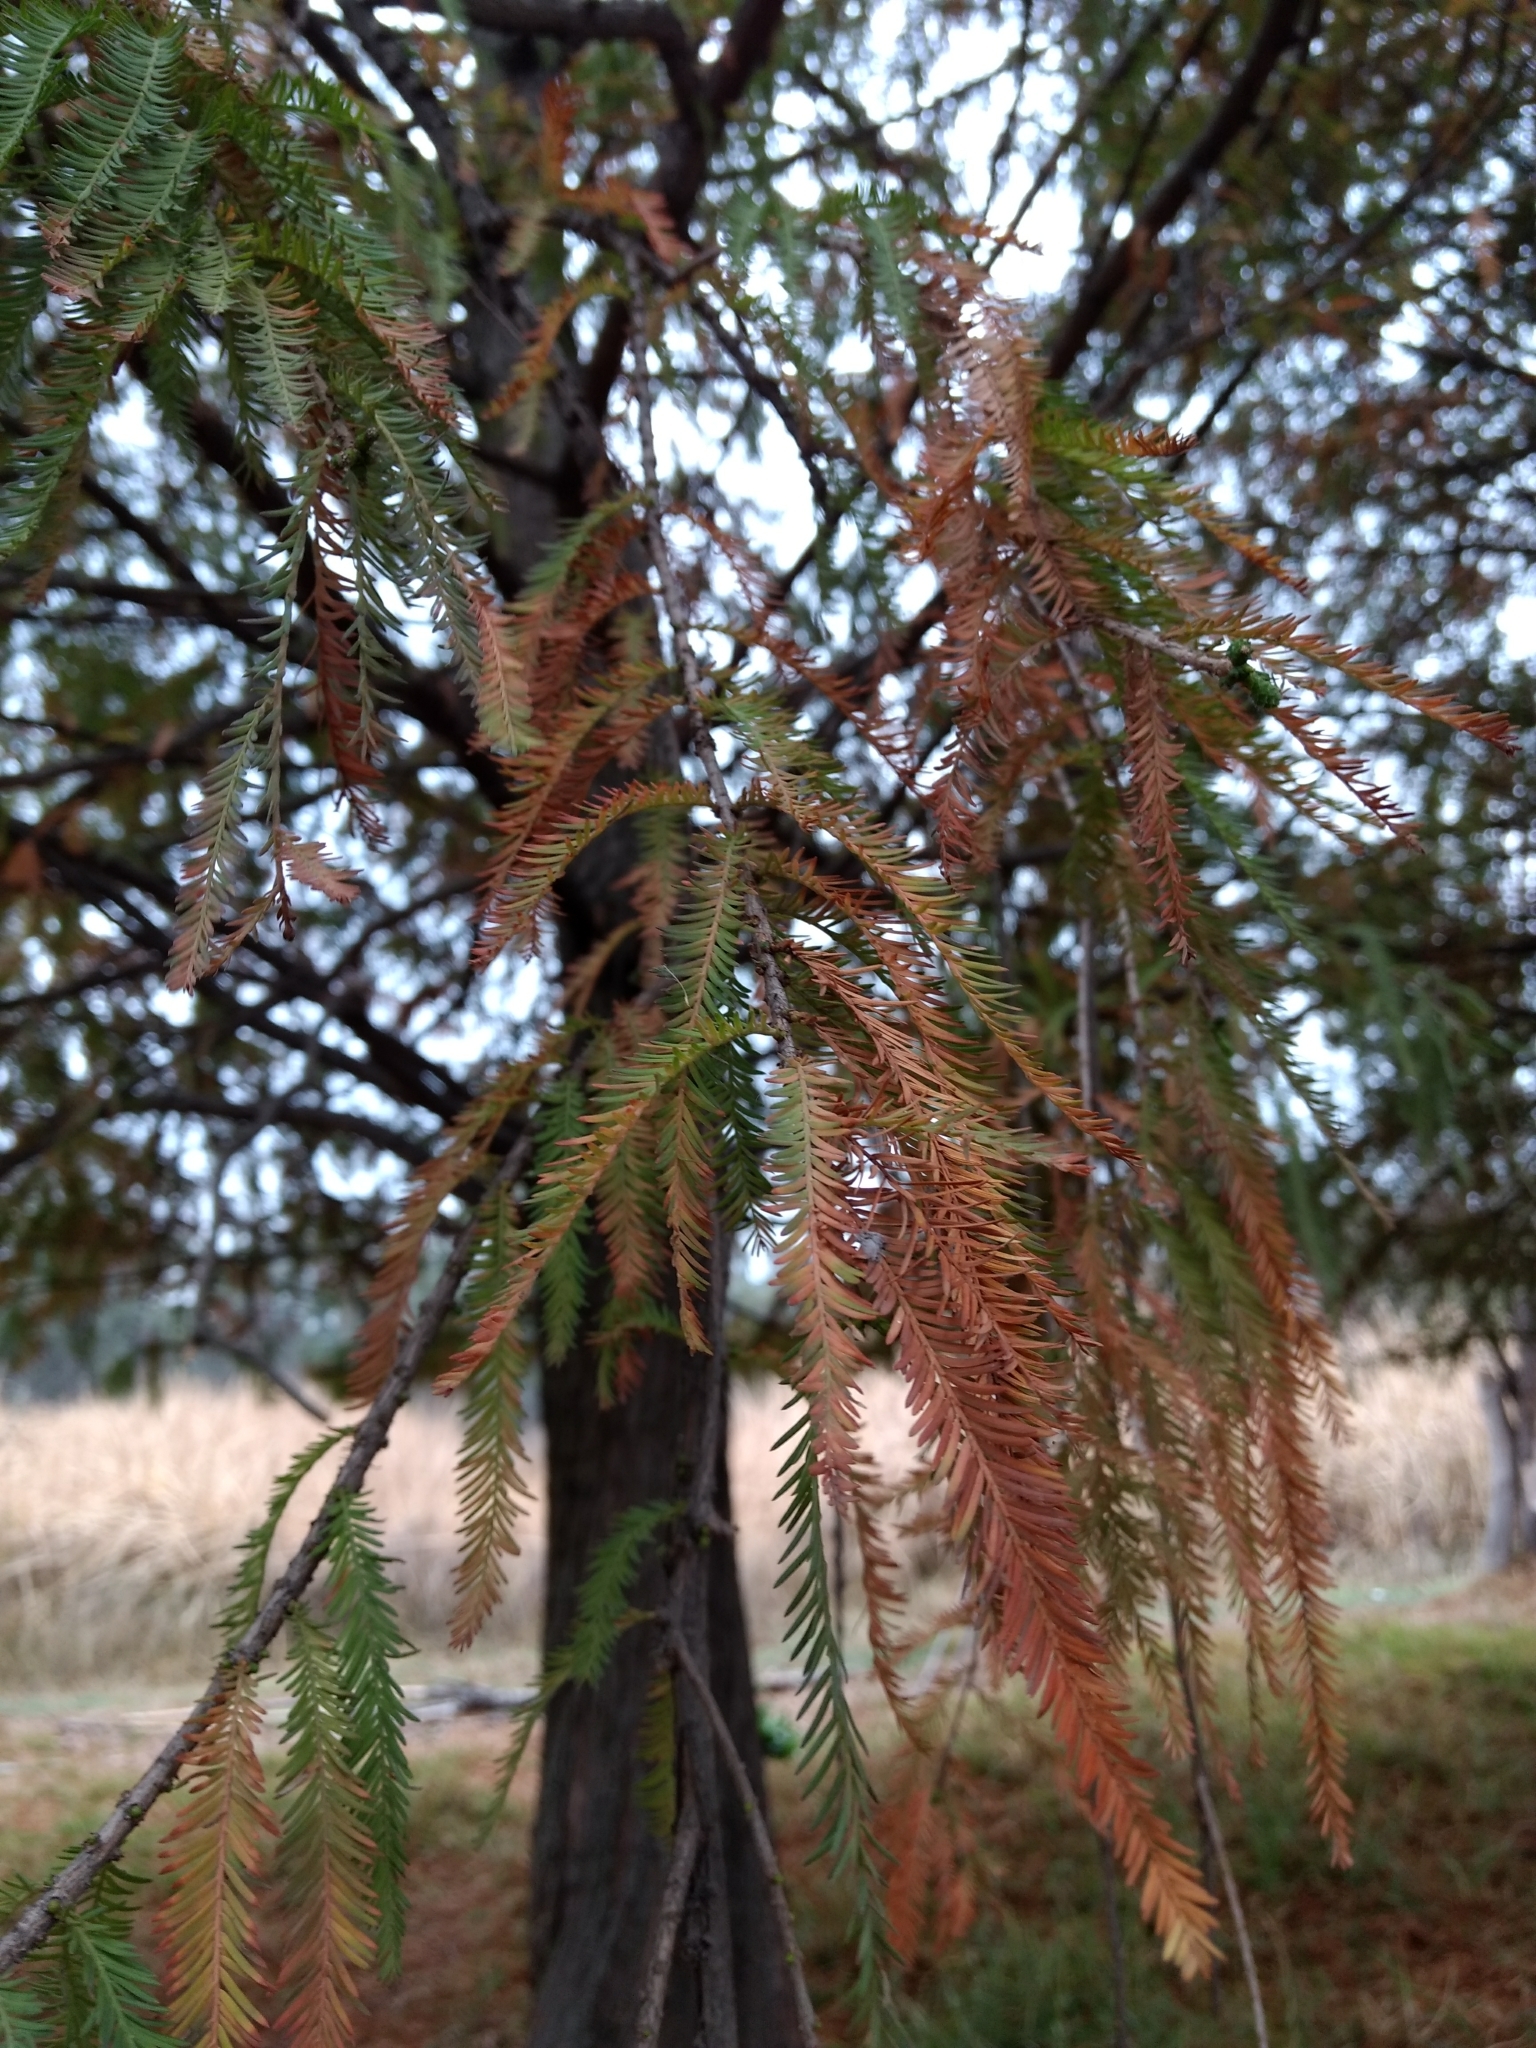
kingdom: Plantae
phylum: Tracheophyta
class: Pinopsida
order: Pinales
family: Cupressaceae
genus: Taxodium
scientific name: Taxodium mucronatum
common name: Montezume bald cypress
